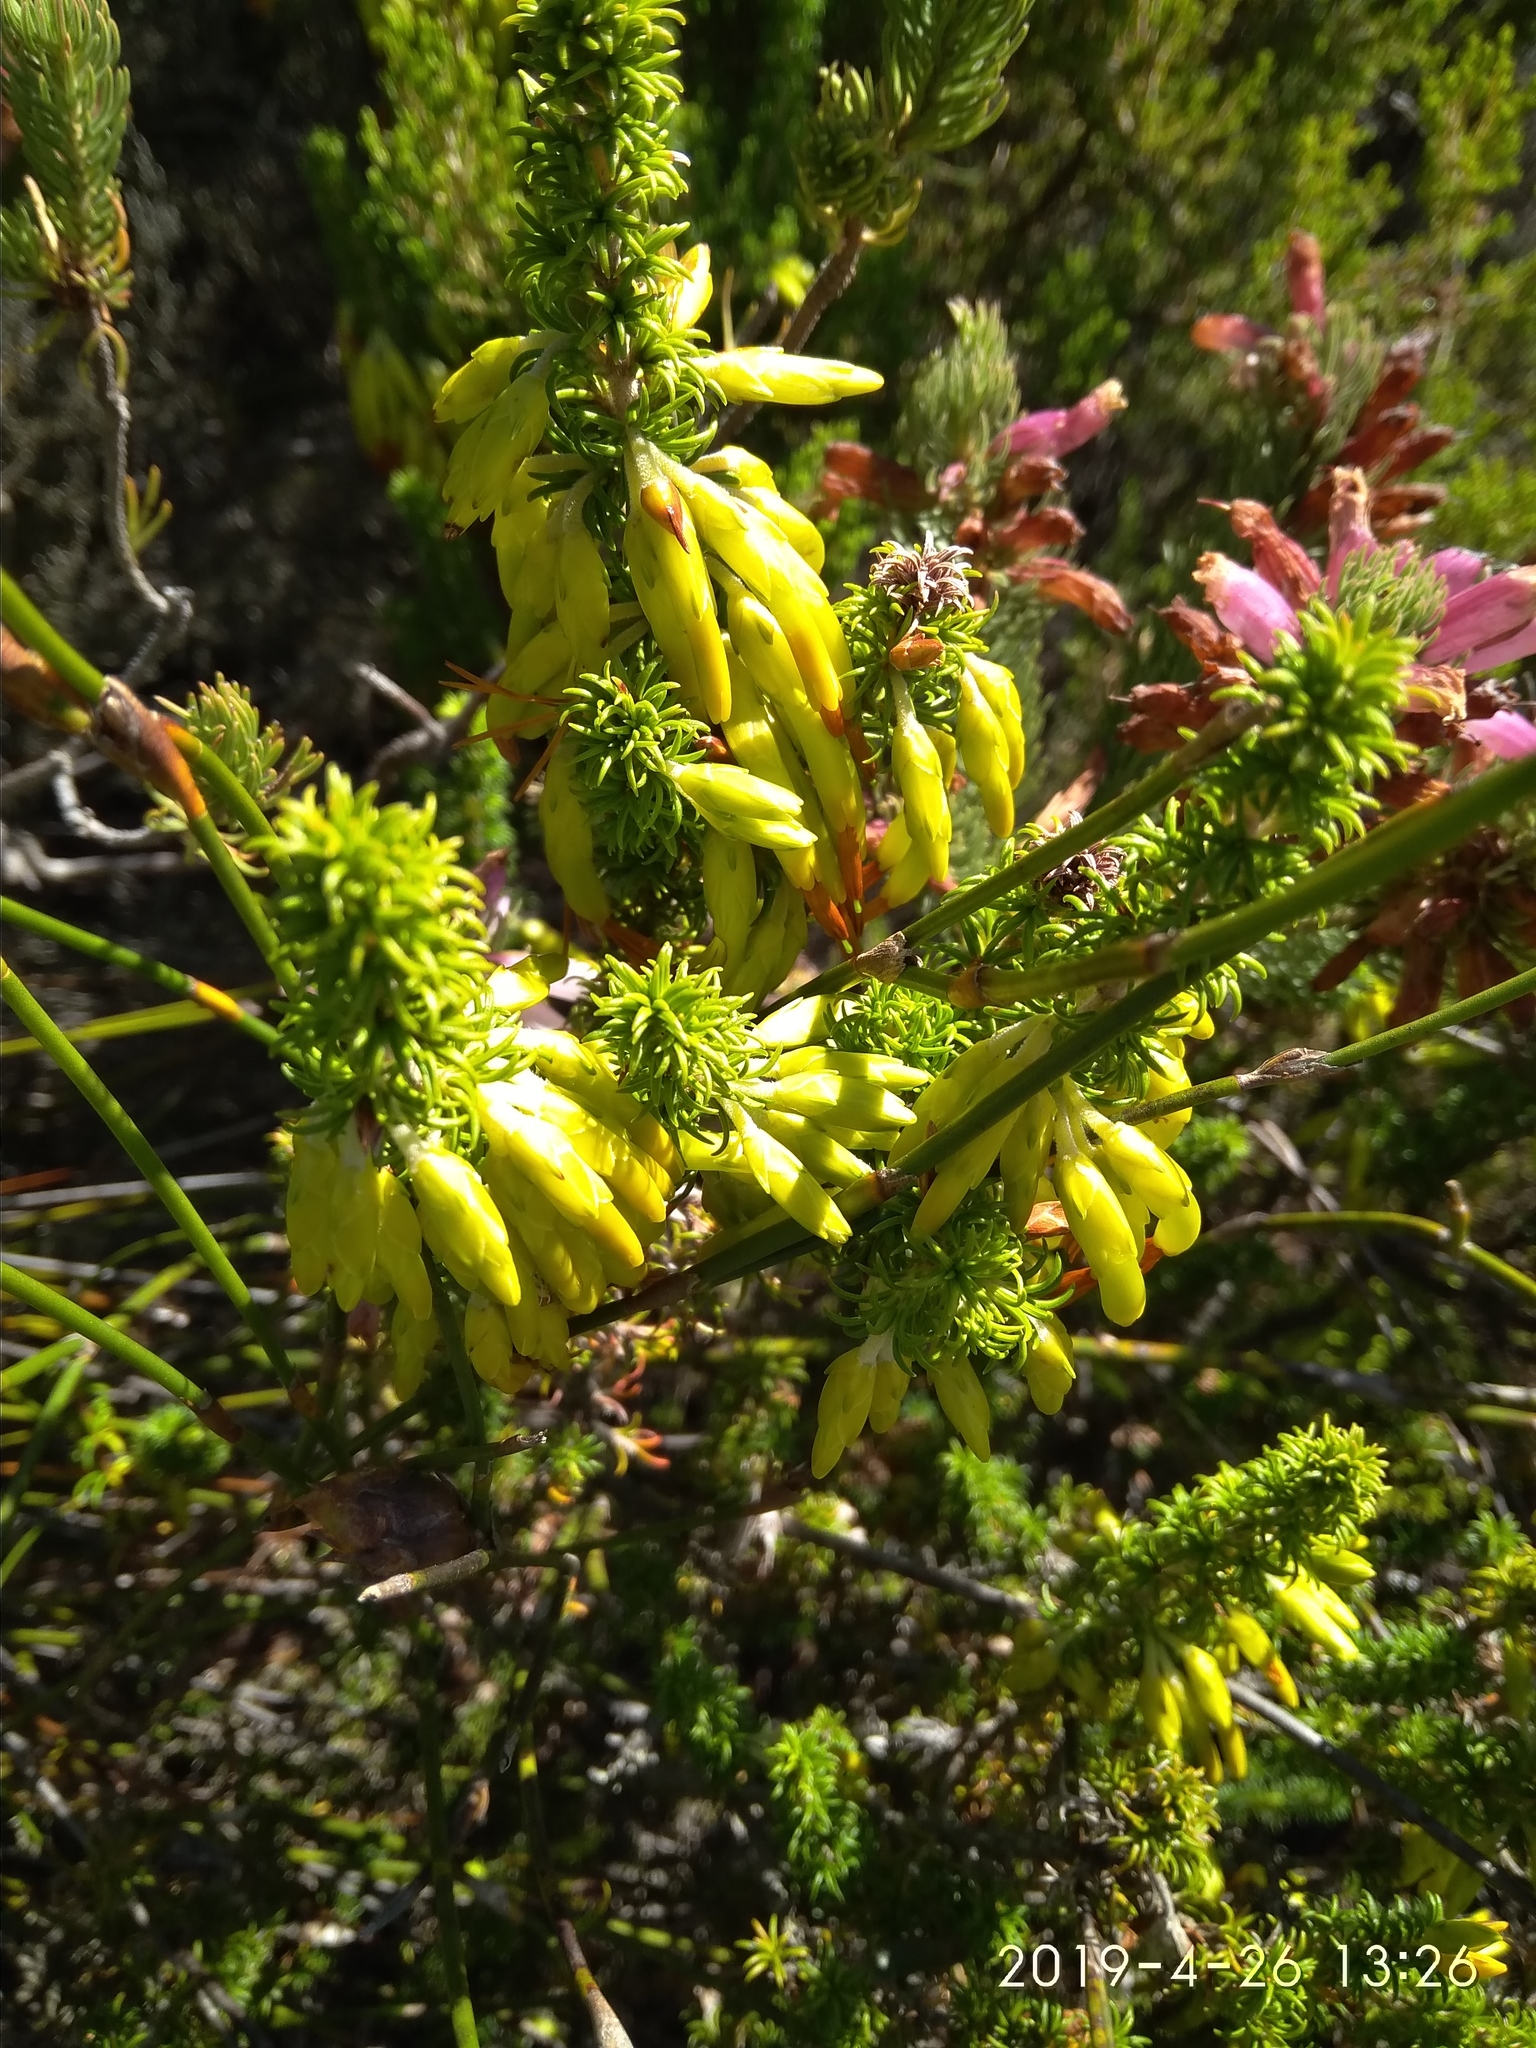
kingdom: Plantae
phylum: Tracheophyta
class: Magnoliopsida
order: Ericales
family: Ericaceae
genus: Erica
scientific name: Erica coccinea
